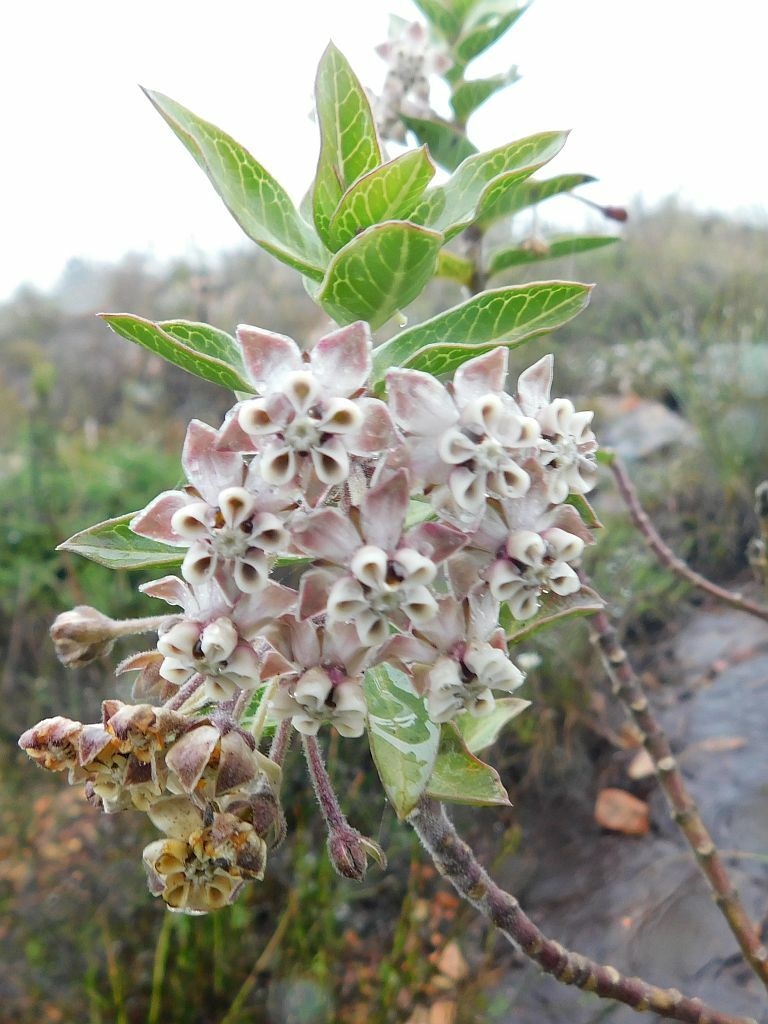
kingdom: Plantae
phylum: Tracheophyta
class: Magnoliopsida
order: Gentianales
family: Apocynaceae
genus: Gomphocarpus
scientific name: Gomphocarpus cancellatus
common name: Wild cotton
